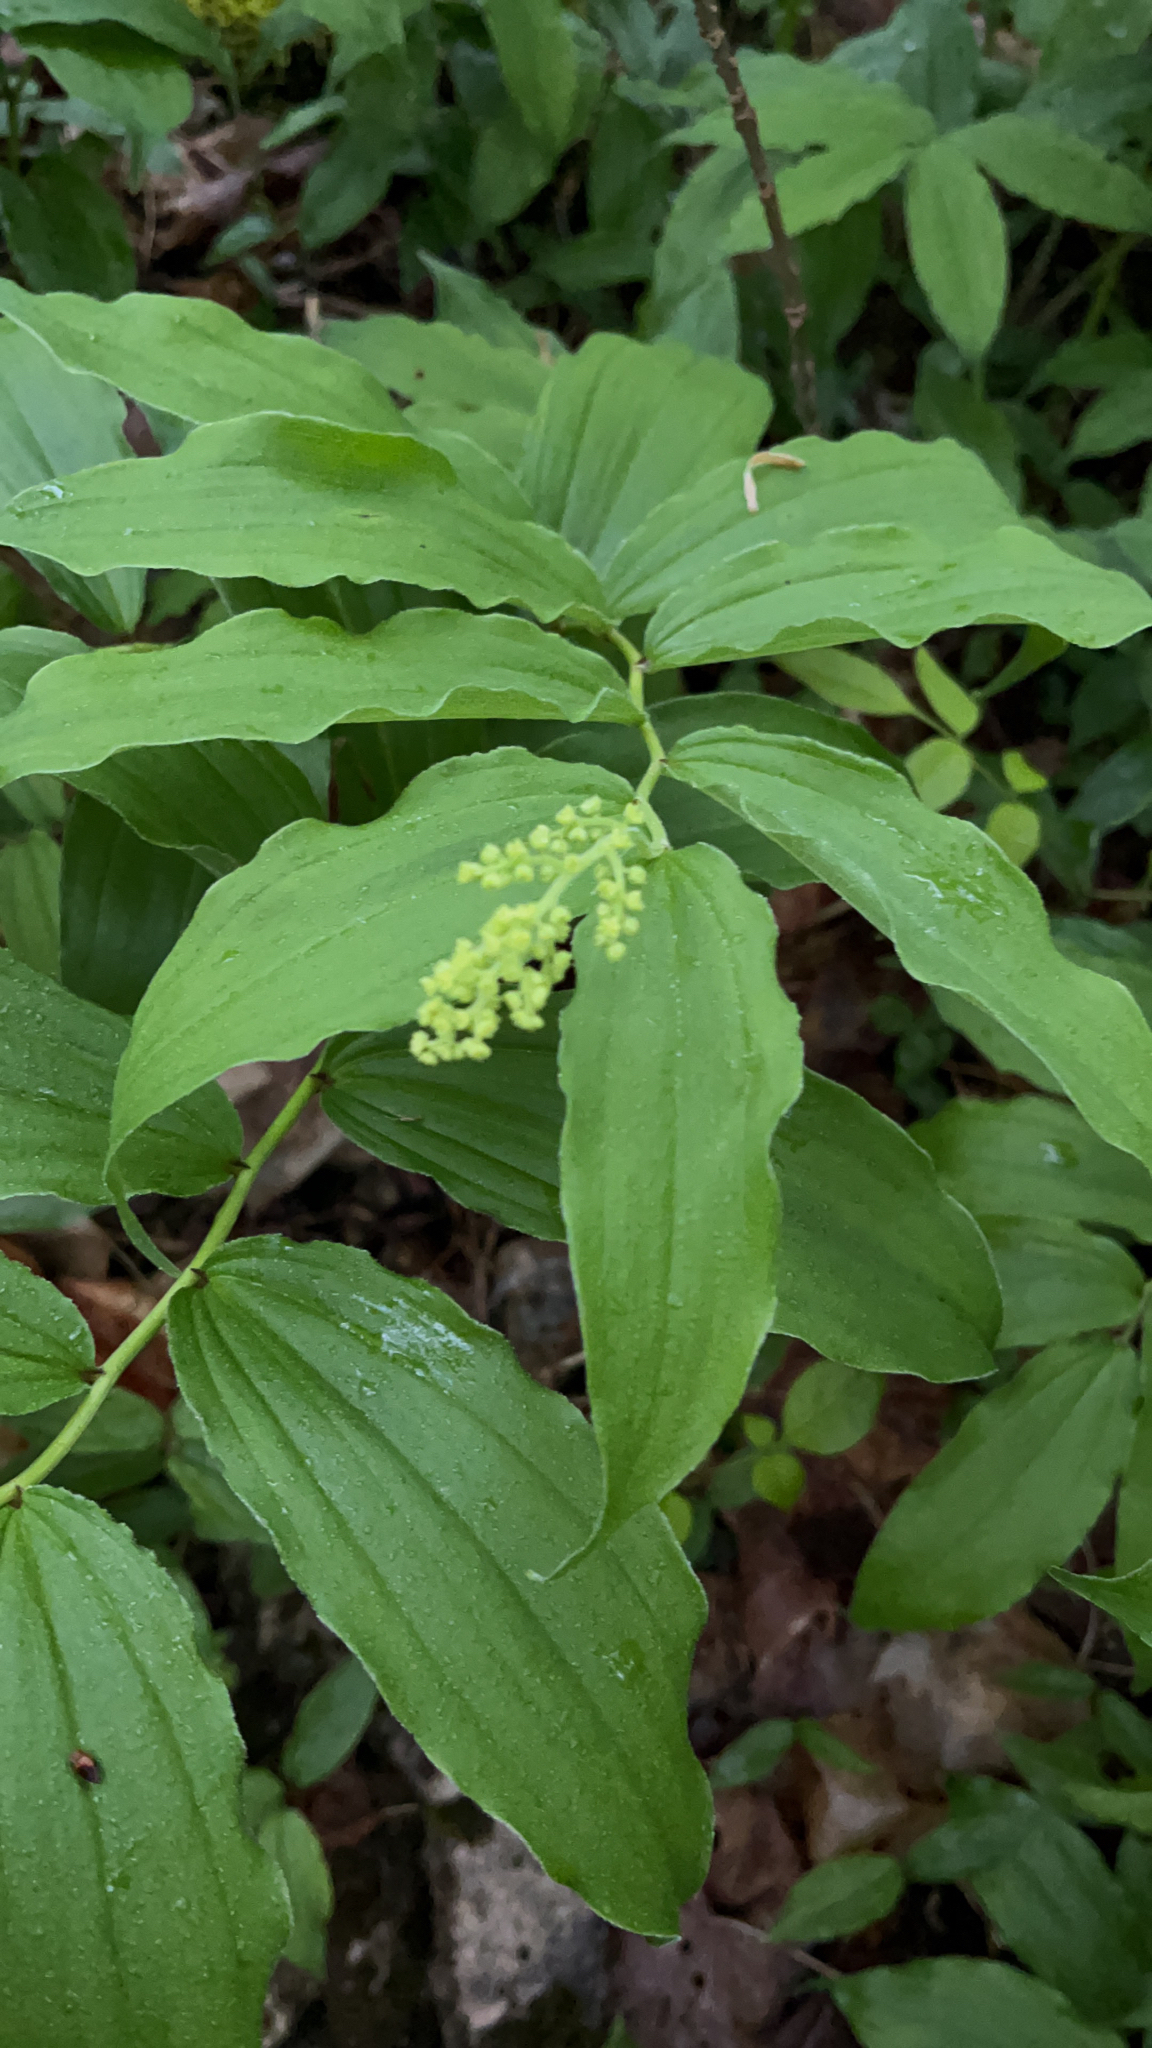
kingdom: Plantae
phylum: Tracheophyta
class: Liliopsida
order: Asparagales
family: Asparagaceae
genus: Maianthemum
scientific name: Maianthemum racemosum
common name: False spikenard
